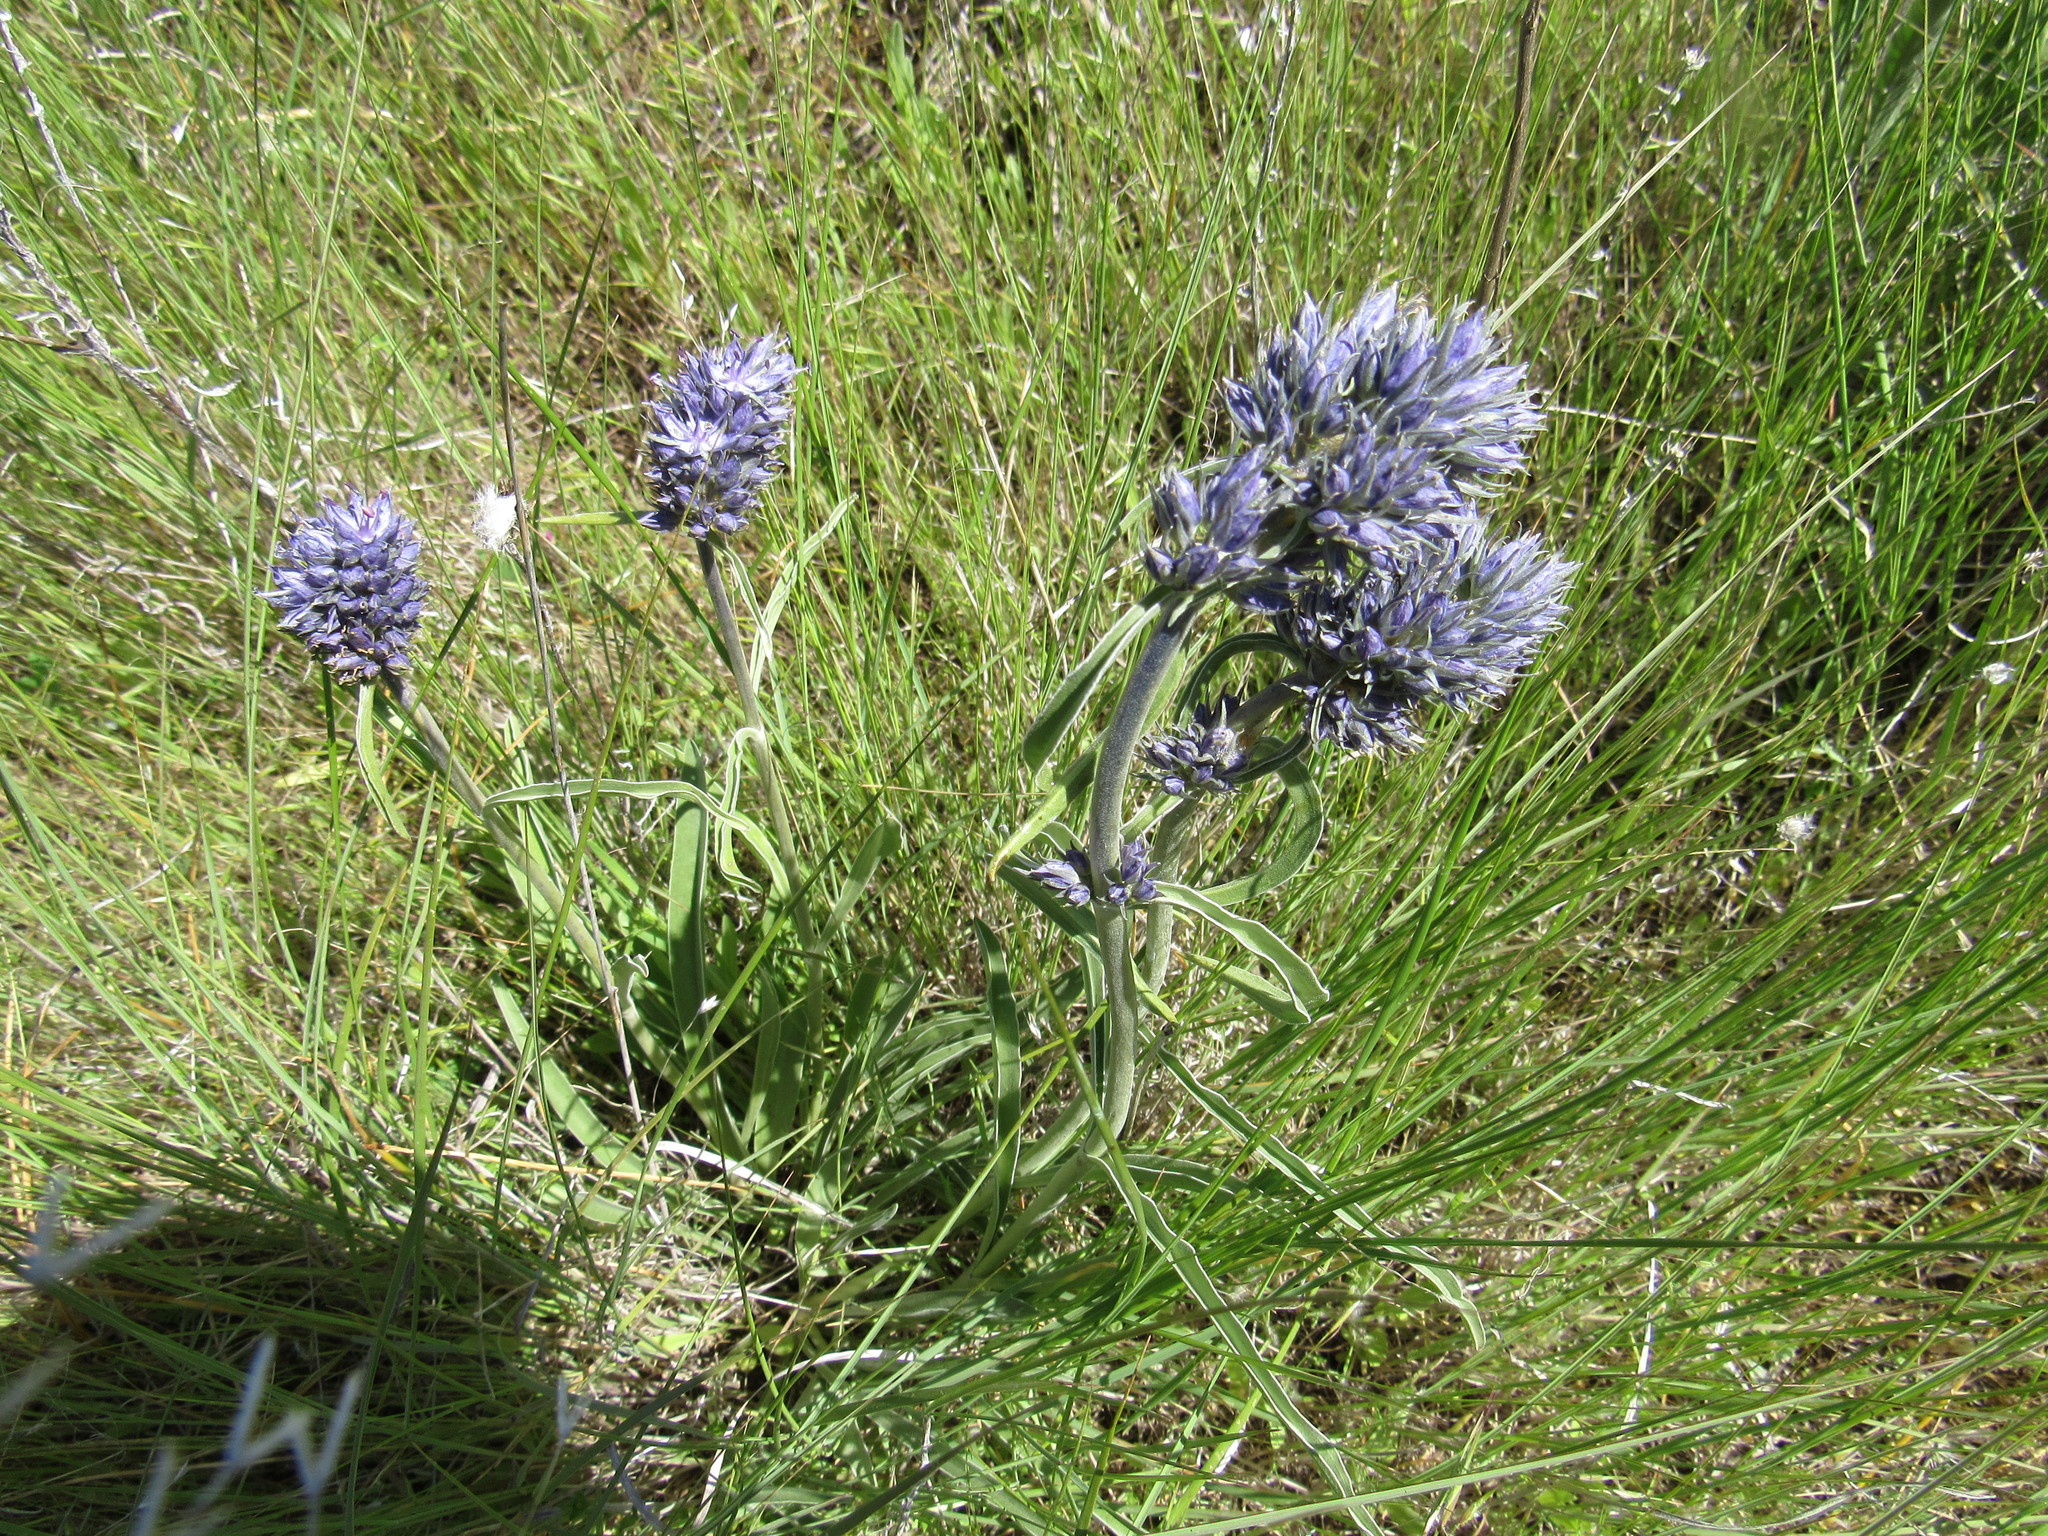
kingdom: Plantae
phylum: Tracheophyta
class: Magnoliopsida
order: Gentianales
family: Gentianaceae
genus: Frasera
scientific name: Frasera albicaulis
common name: Cusick's frasera
